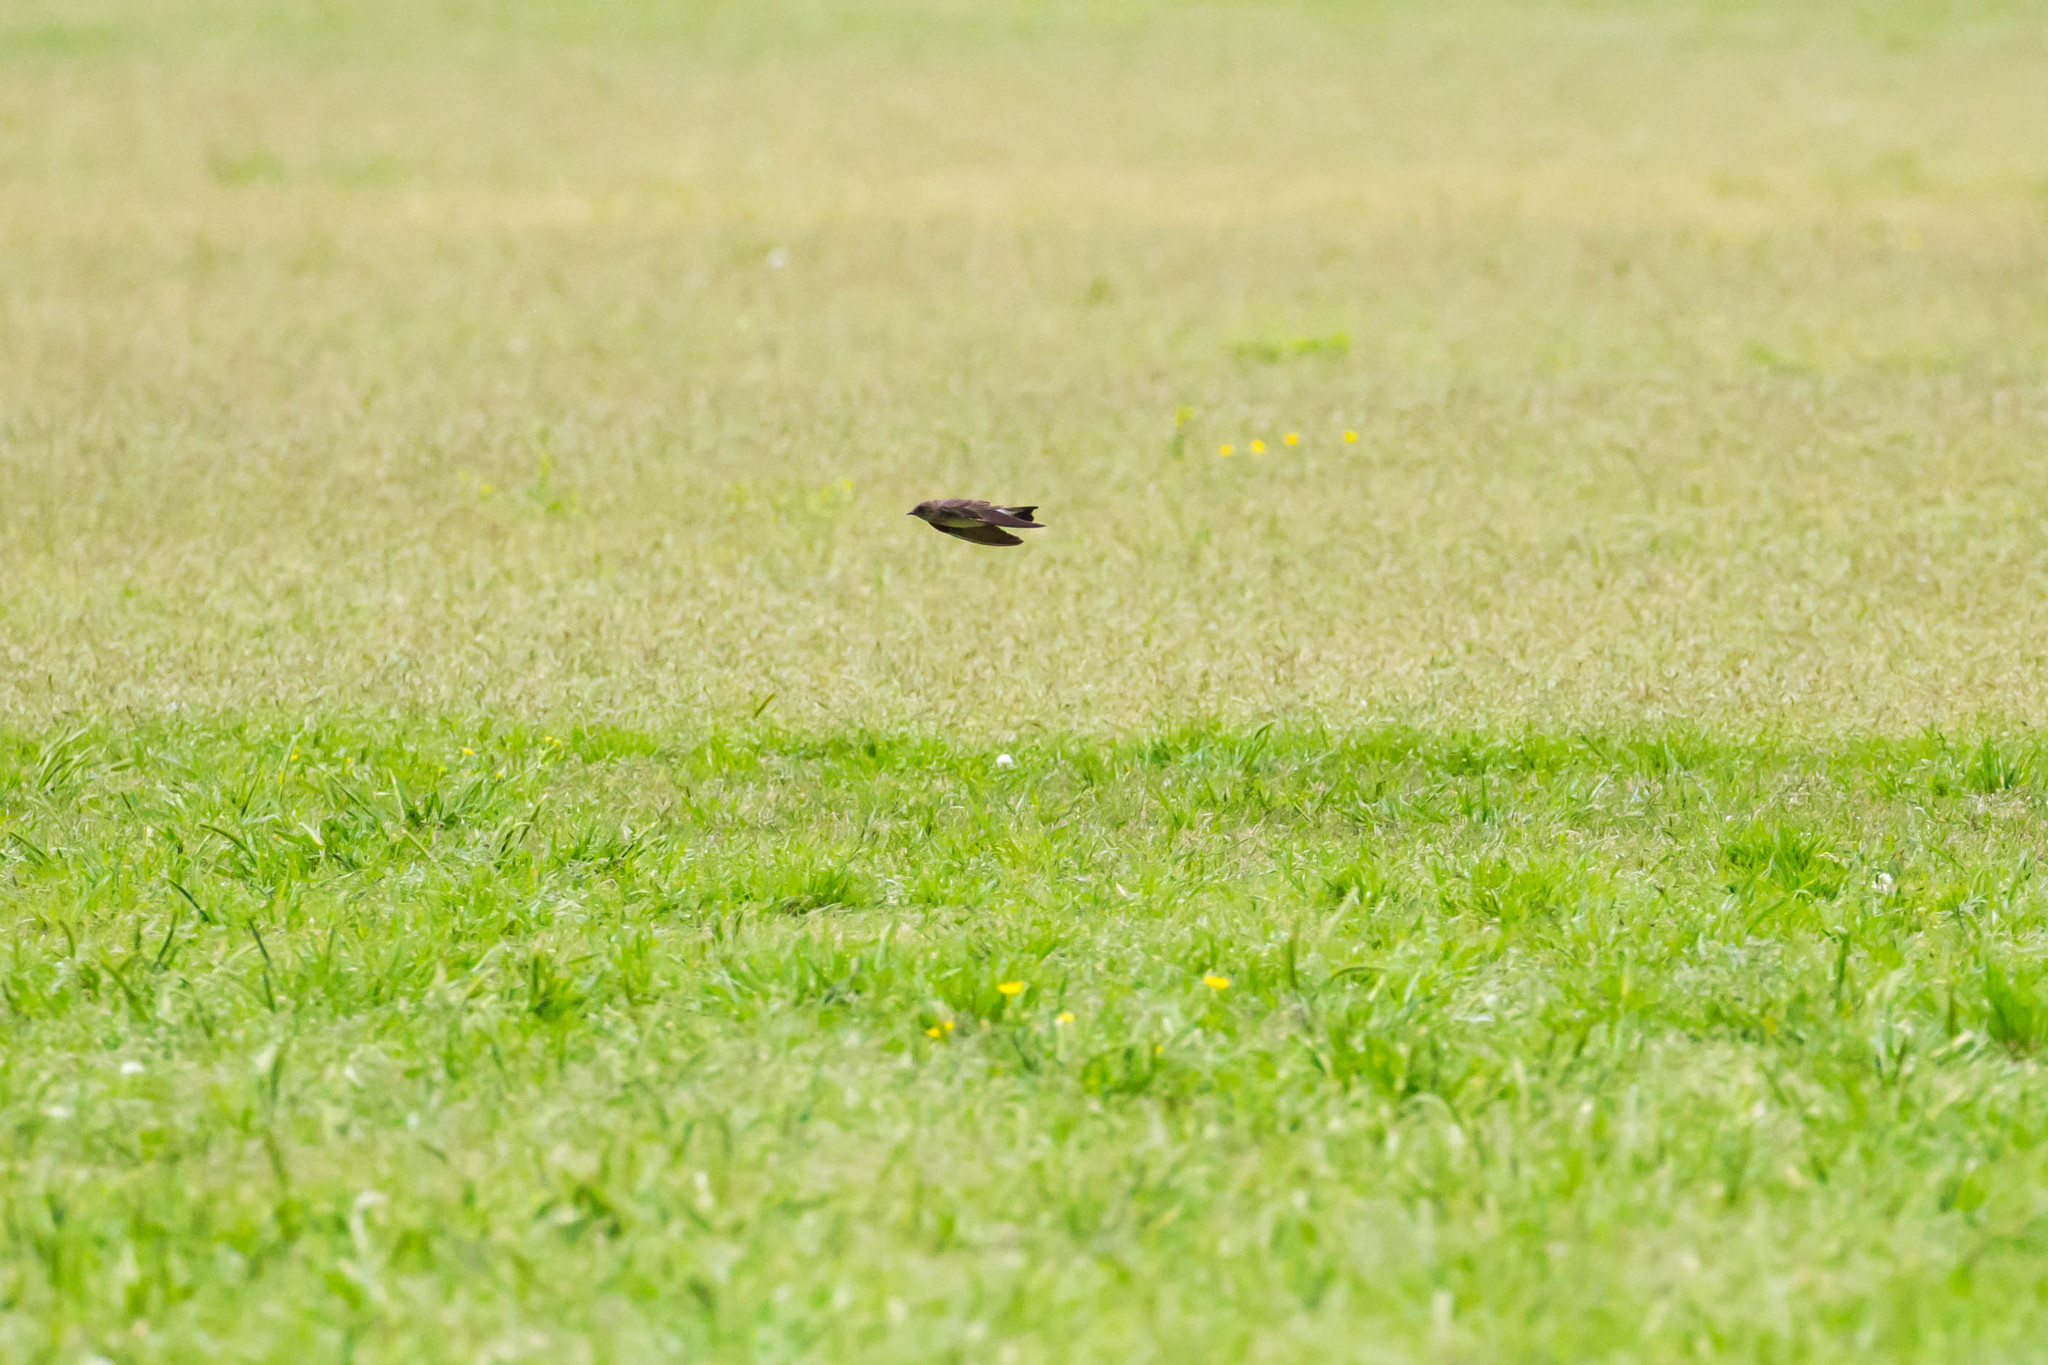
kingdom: Animalia
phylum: Chordata
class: Aves
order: Passeriformes
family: Hirundinidae
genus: Stelgidopteryx
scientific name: Stelgidopteryx serripennis
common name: Northern rough-winged swallow
